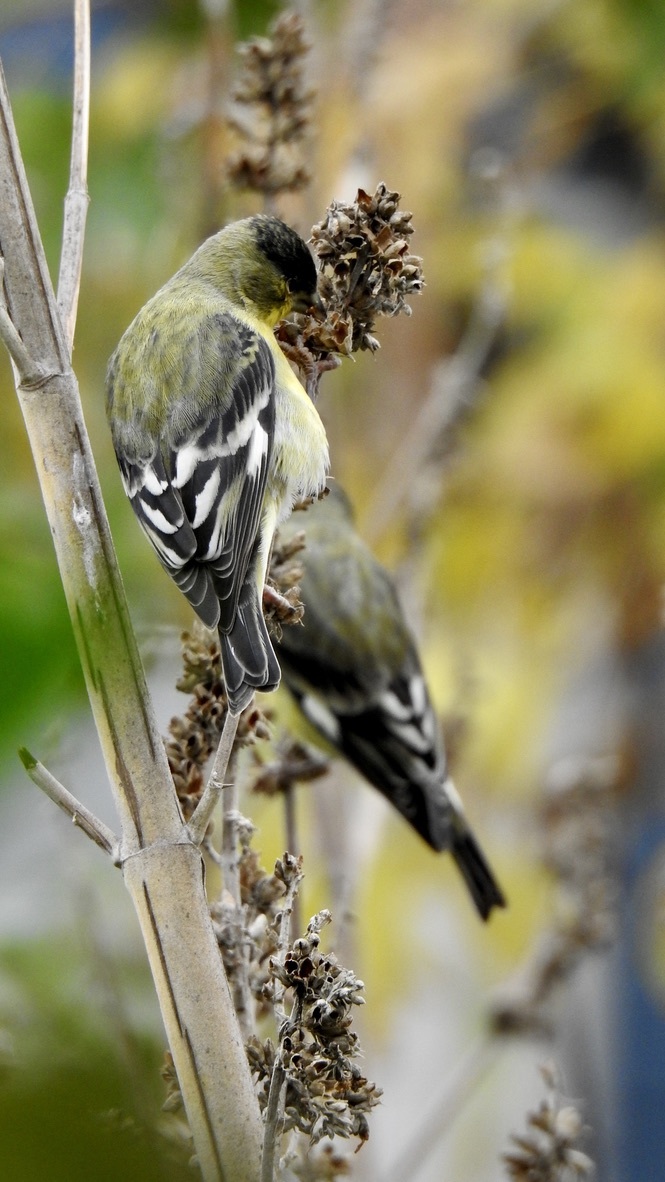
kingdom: Animalia
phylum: Chordata
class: Aves
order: Passeriformes
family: Fringillidae
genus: Spinus
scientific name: Spinus psaltria
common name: Lesser goldfinch
